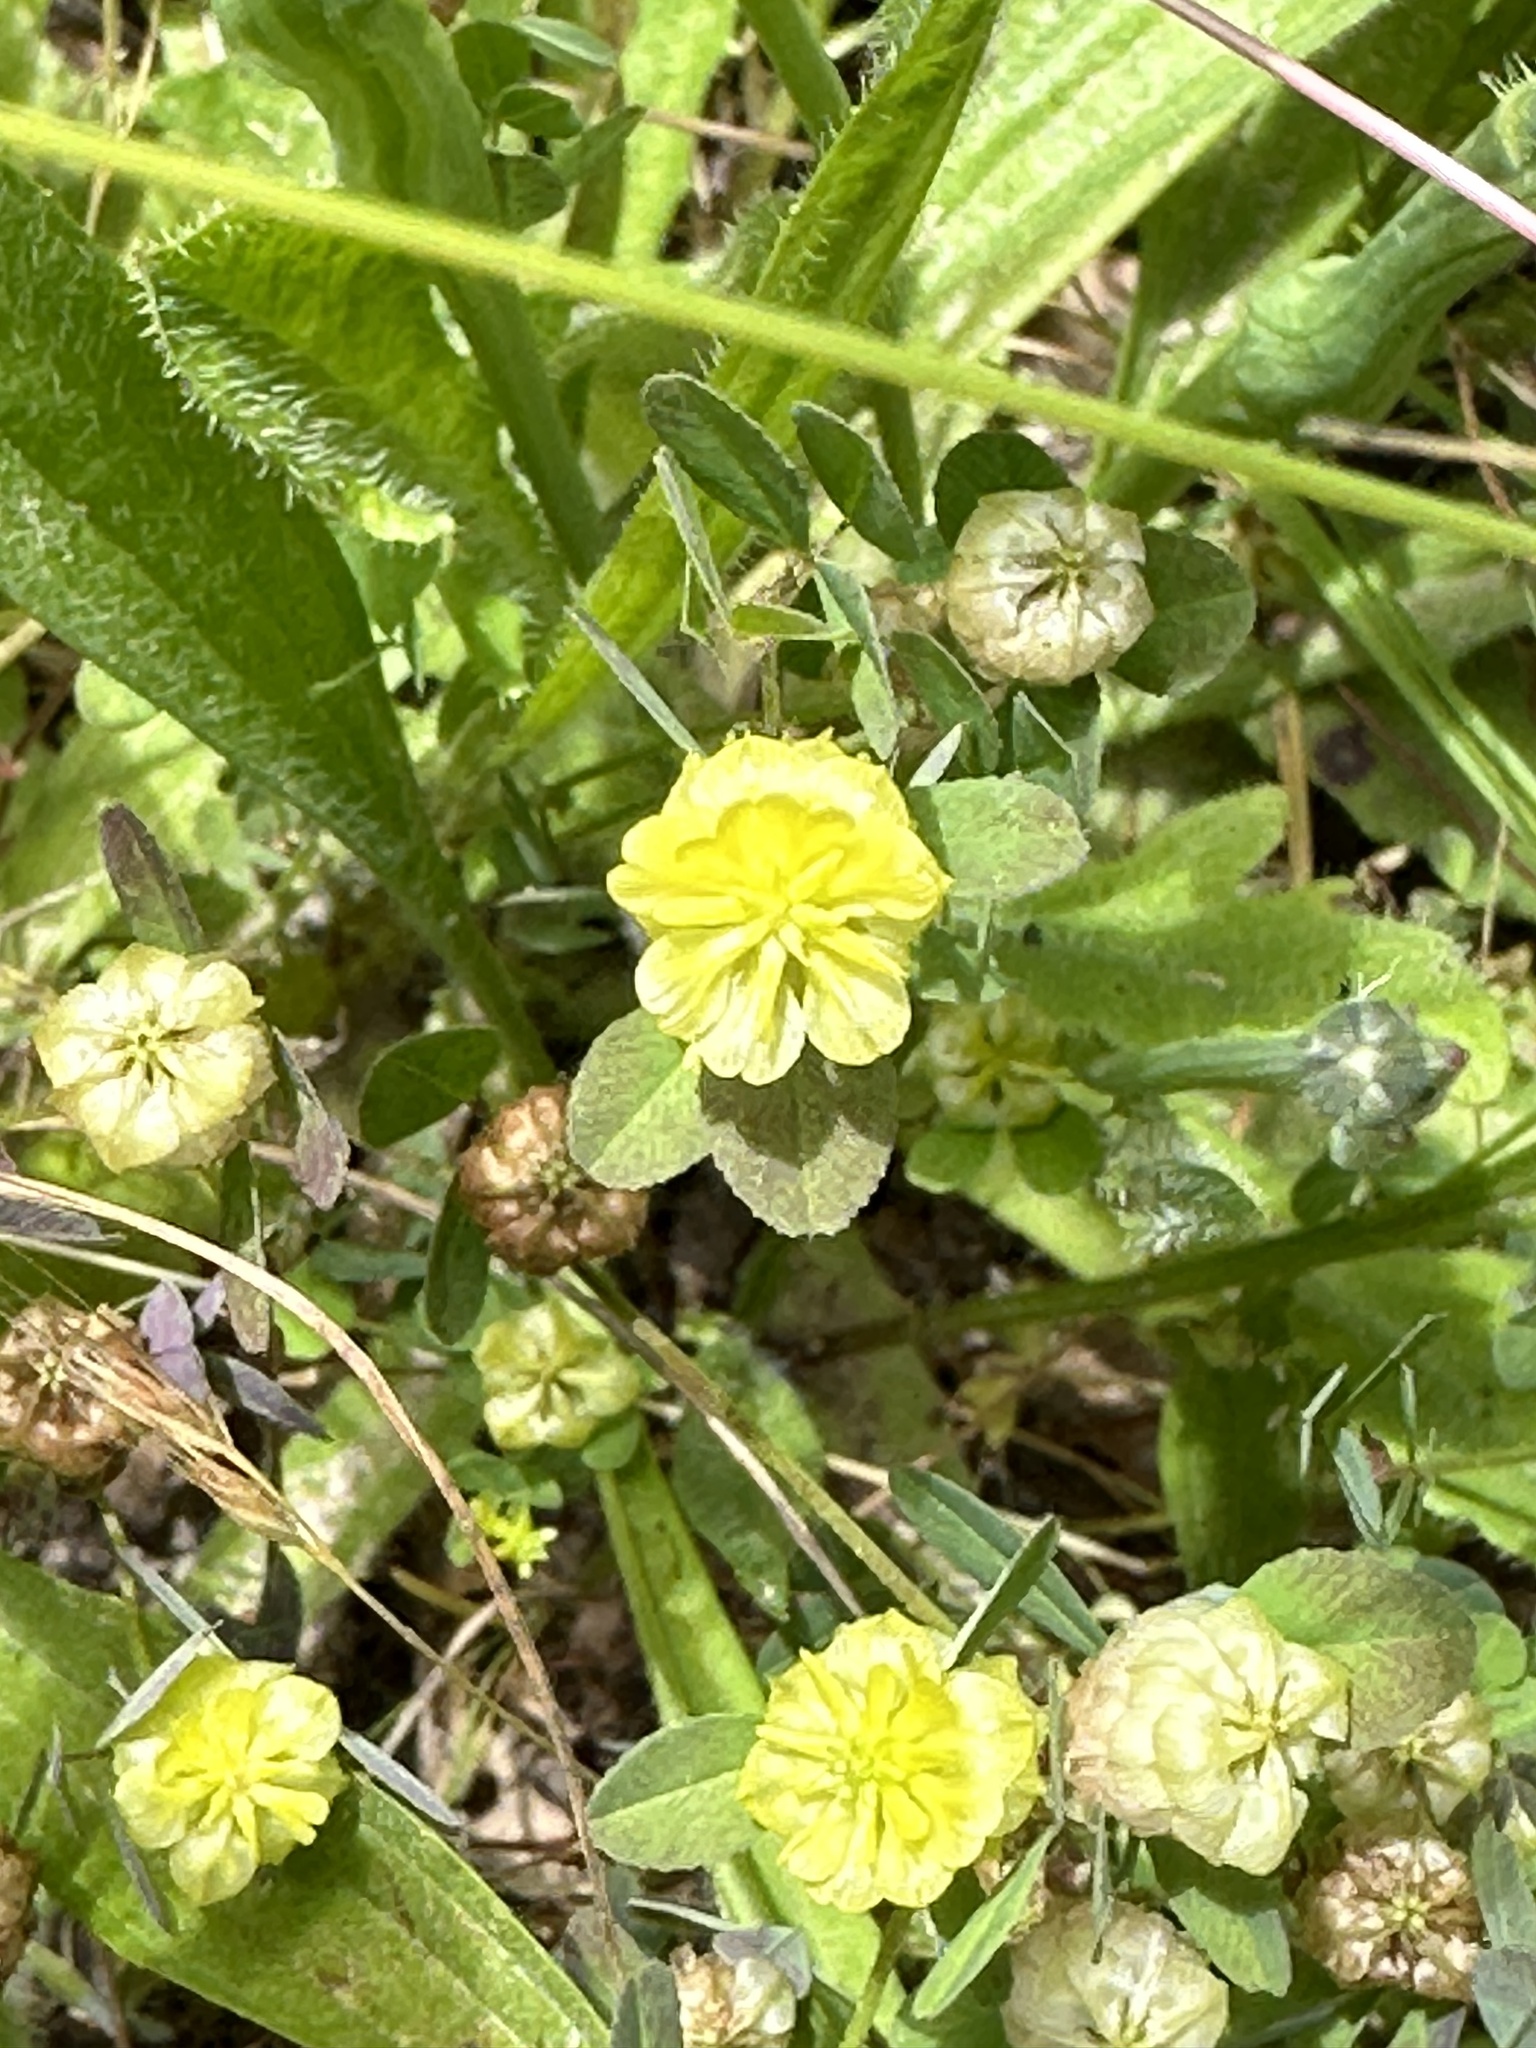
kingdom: Plantae
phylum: Tracheophyta
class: Magnoliopsida
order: Fabales
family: Fabaceae
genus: Trifolium
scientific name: Trifolium campestre
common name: Field clover
